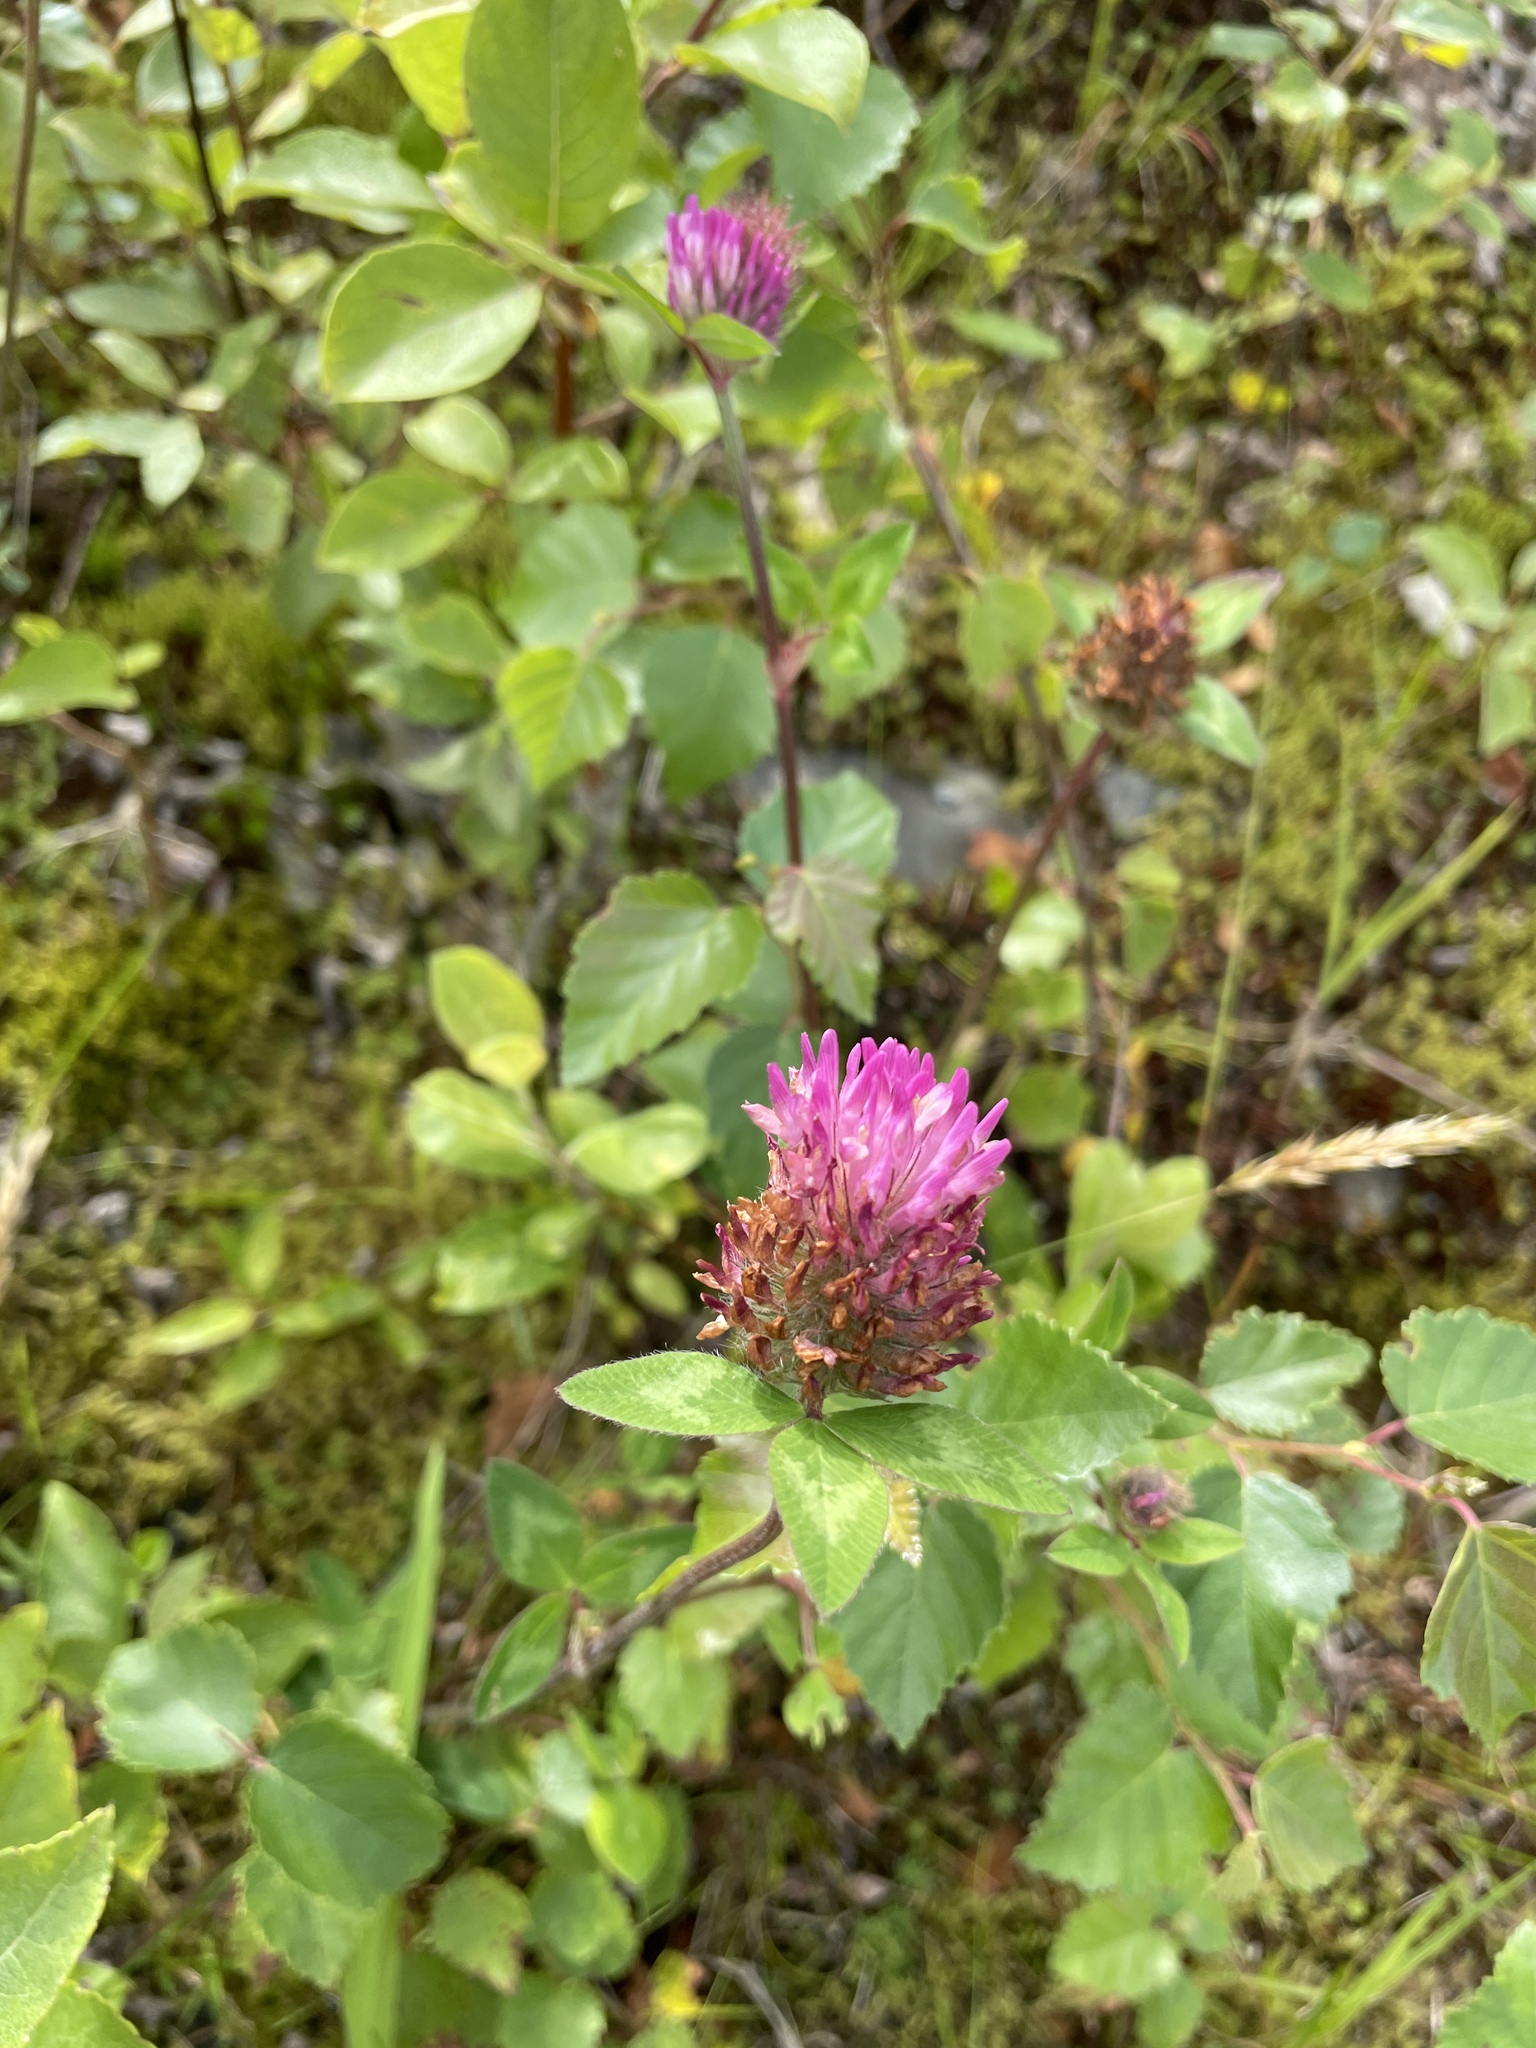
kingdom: Plantae
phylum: Tracheophyta
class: Magnoliopsida
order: Fabales
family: Fabaceae
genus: Trifolium
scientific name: Trifolium pratense
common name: Red clover
